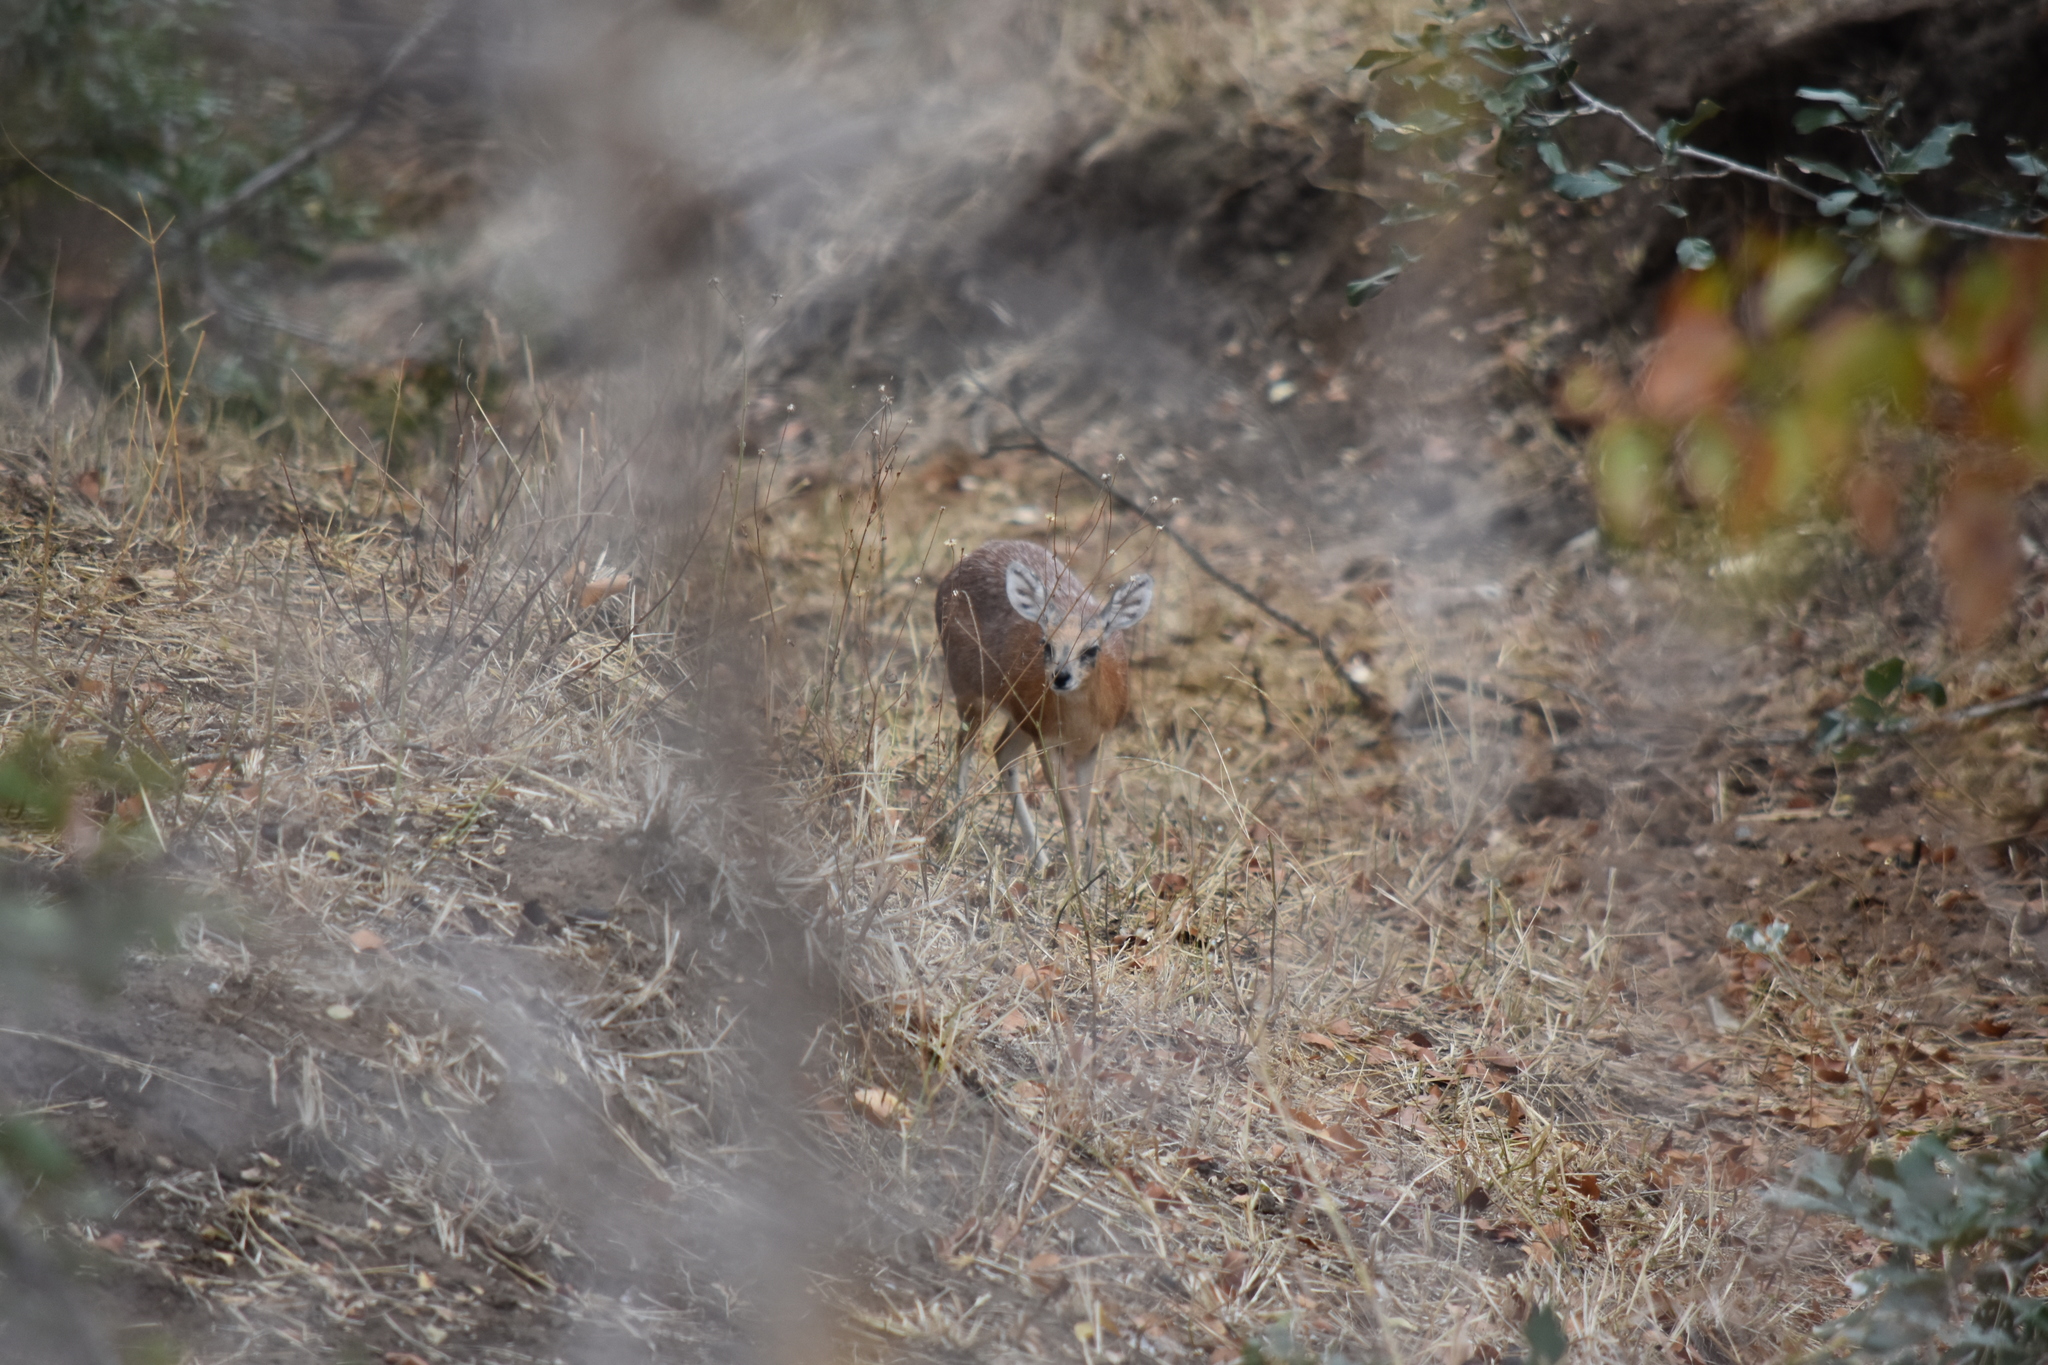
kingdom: Animalia
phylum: Chordata
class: Mammalia
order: Artiodactyla
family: Bovidae
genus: Raphicerus
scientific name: Raphicerus sharpei
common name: Sharpe's grysbok
